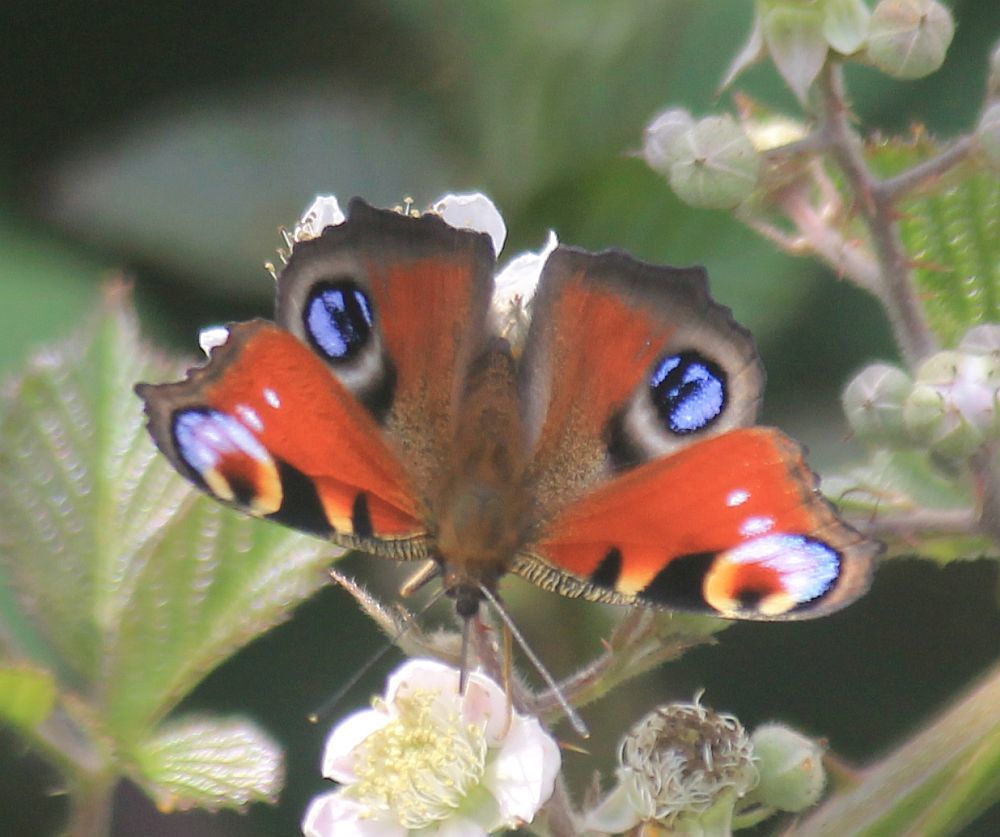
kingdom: Animalia
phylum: Arthropoda
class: Insecta
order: Lepidoptera
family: Nymphalidae
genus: Aglais
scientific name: Aglais io
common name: Peacock
